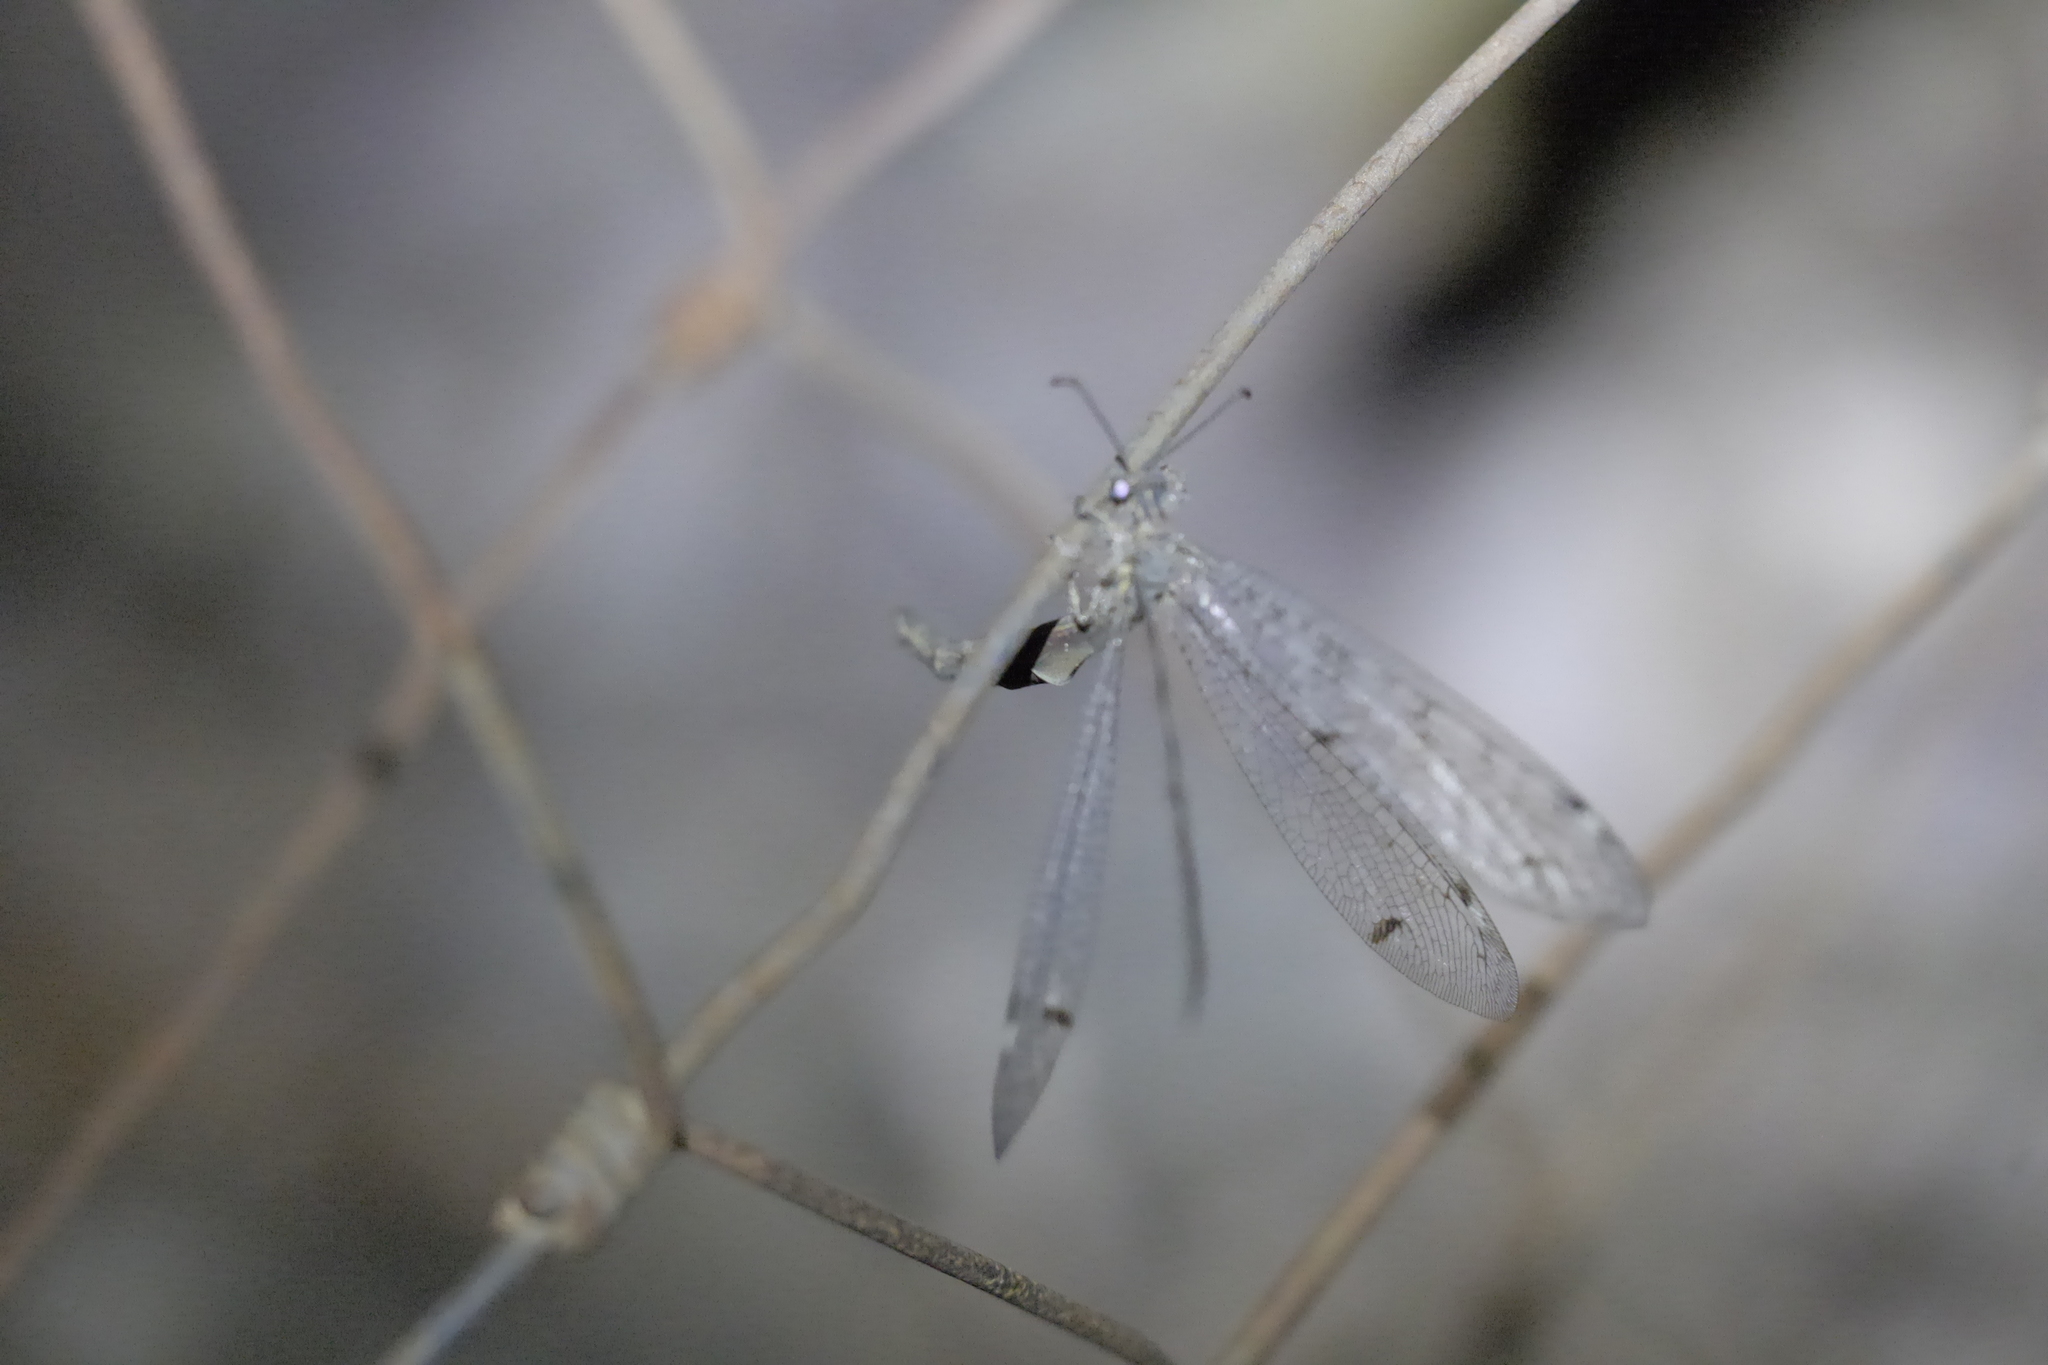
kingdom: Animalia
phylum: Arthropoda
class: Insecta
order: Neuroptera
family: Myrmeleontidae
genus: Distoleon
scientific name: Distoleon tetragrammicus
